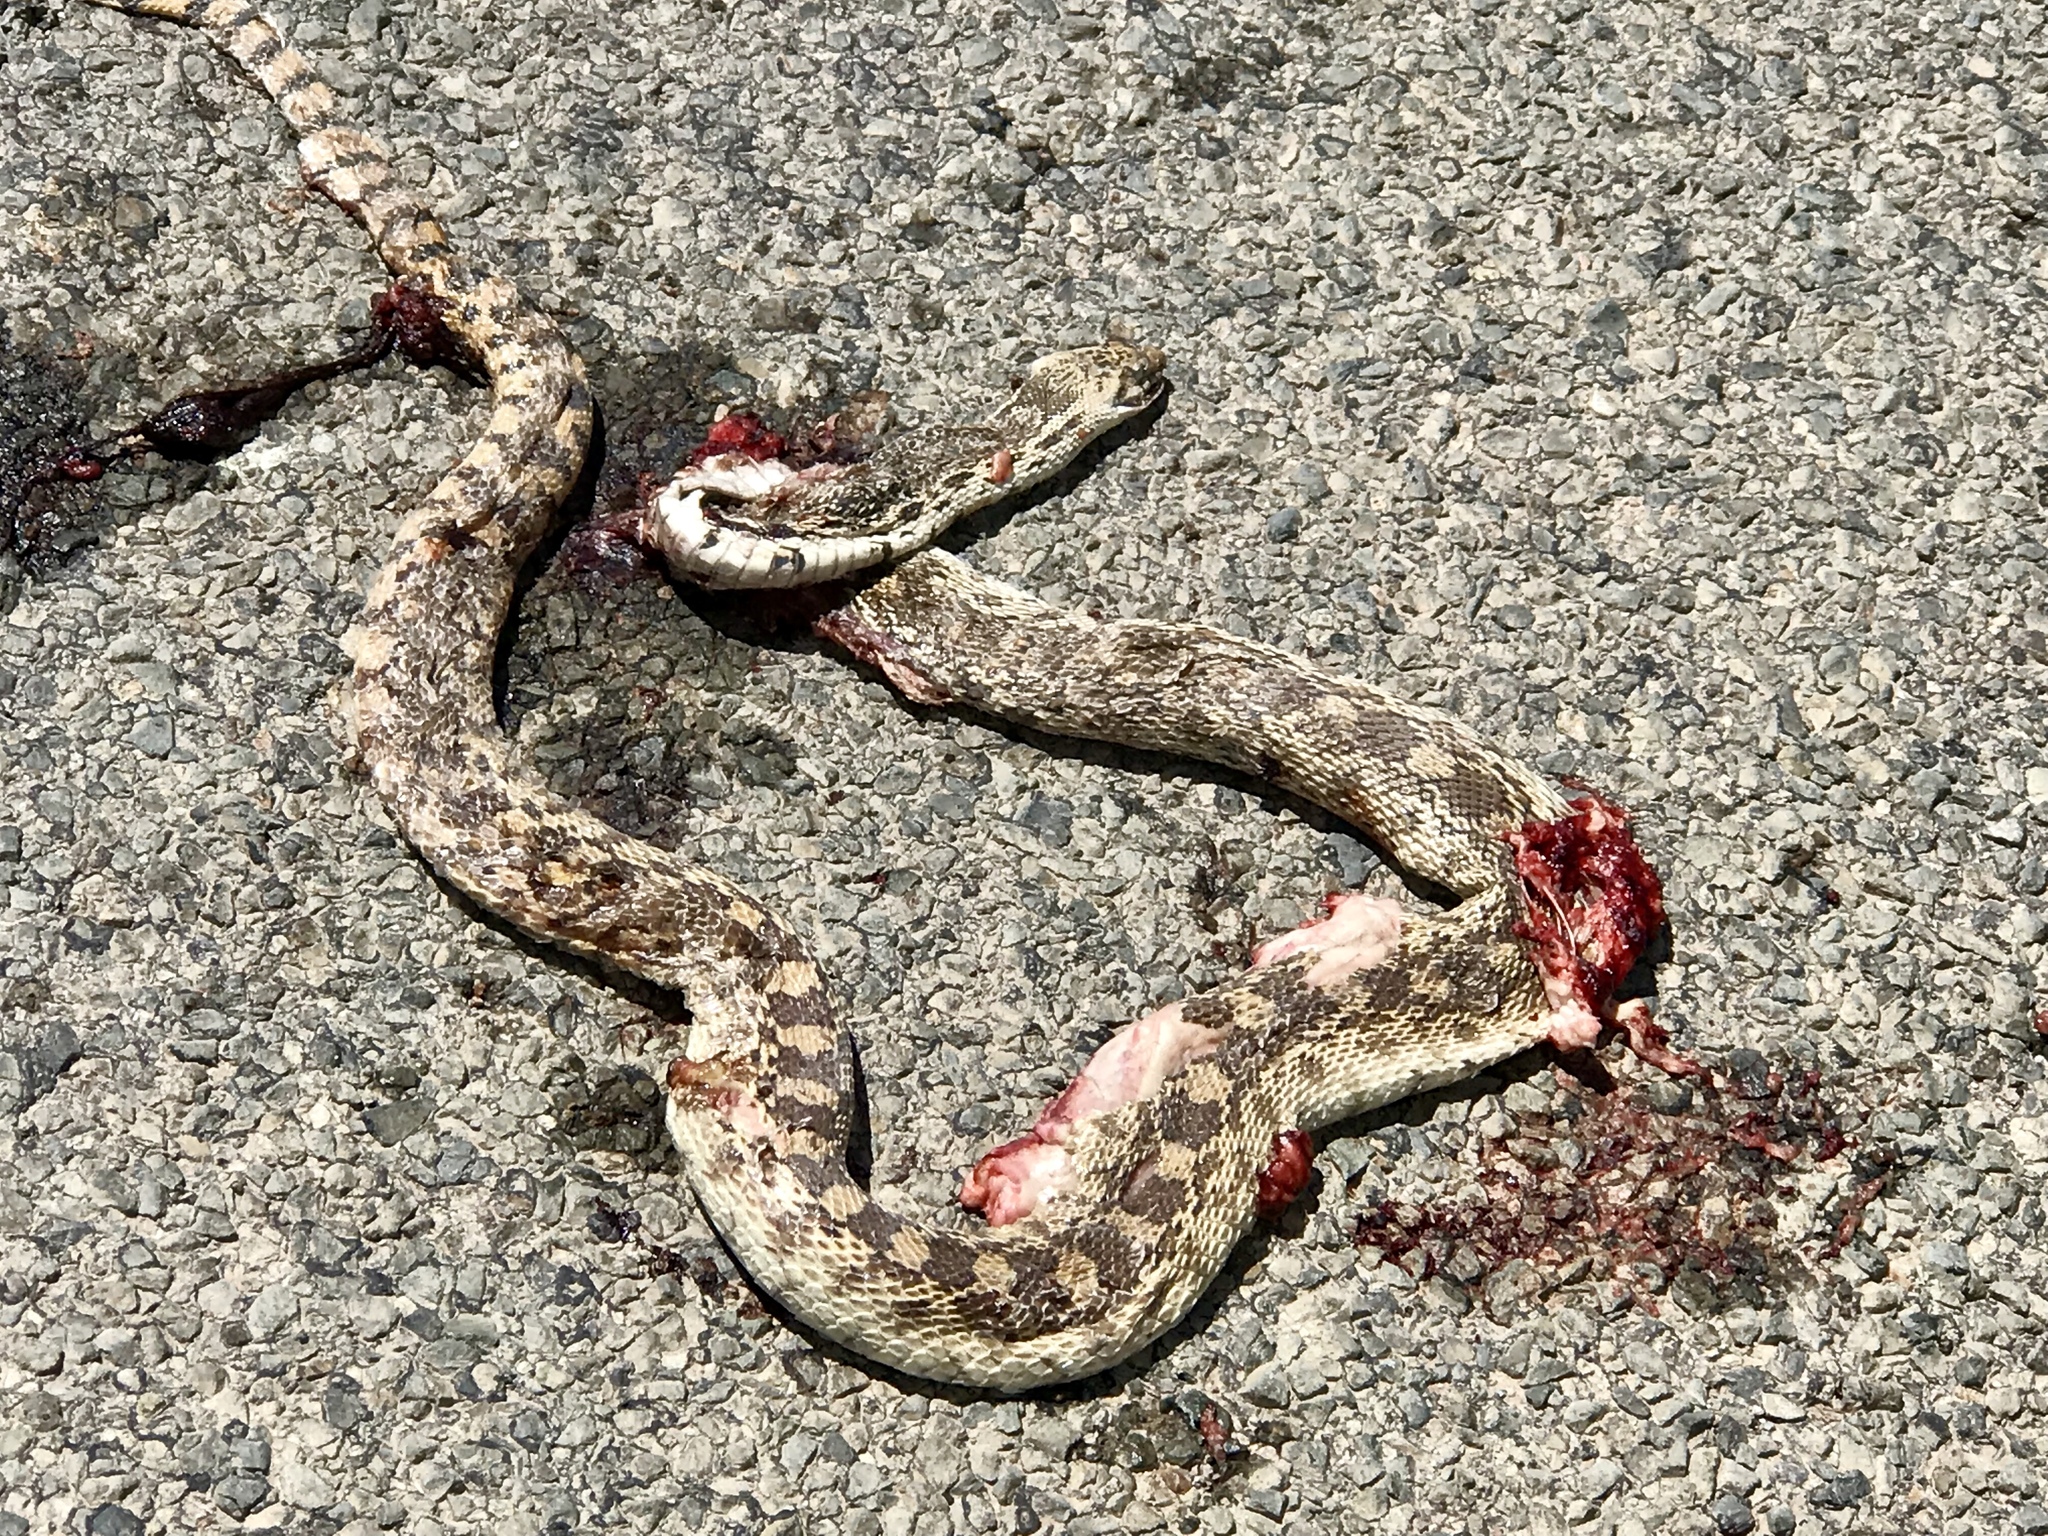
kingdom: Animalia
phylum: Chordata
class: Squamata
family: Colubridae
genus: Pituophis
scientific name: Pituophis catenifer
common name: Gopher snake
